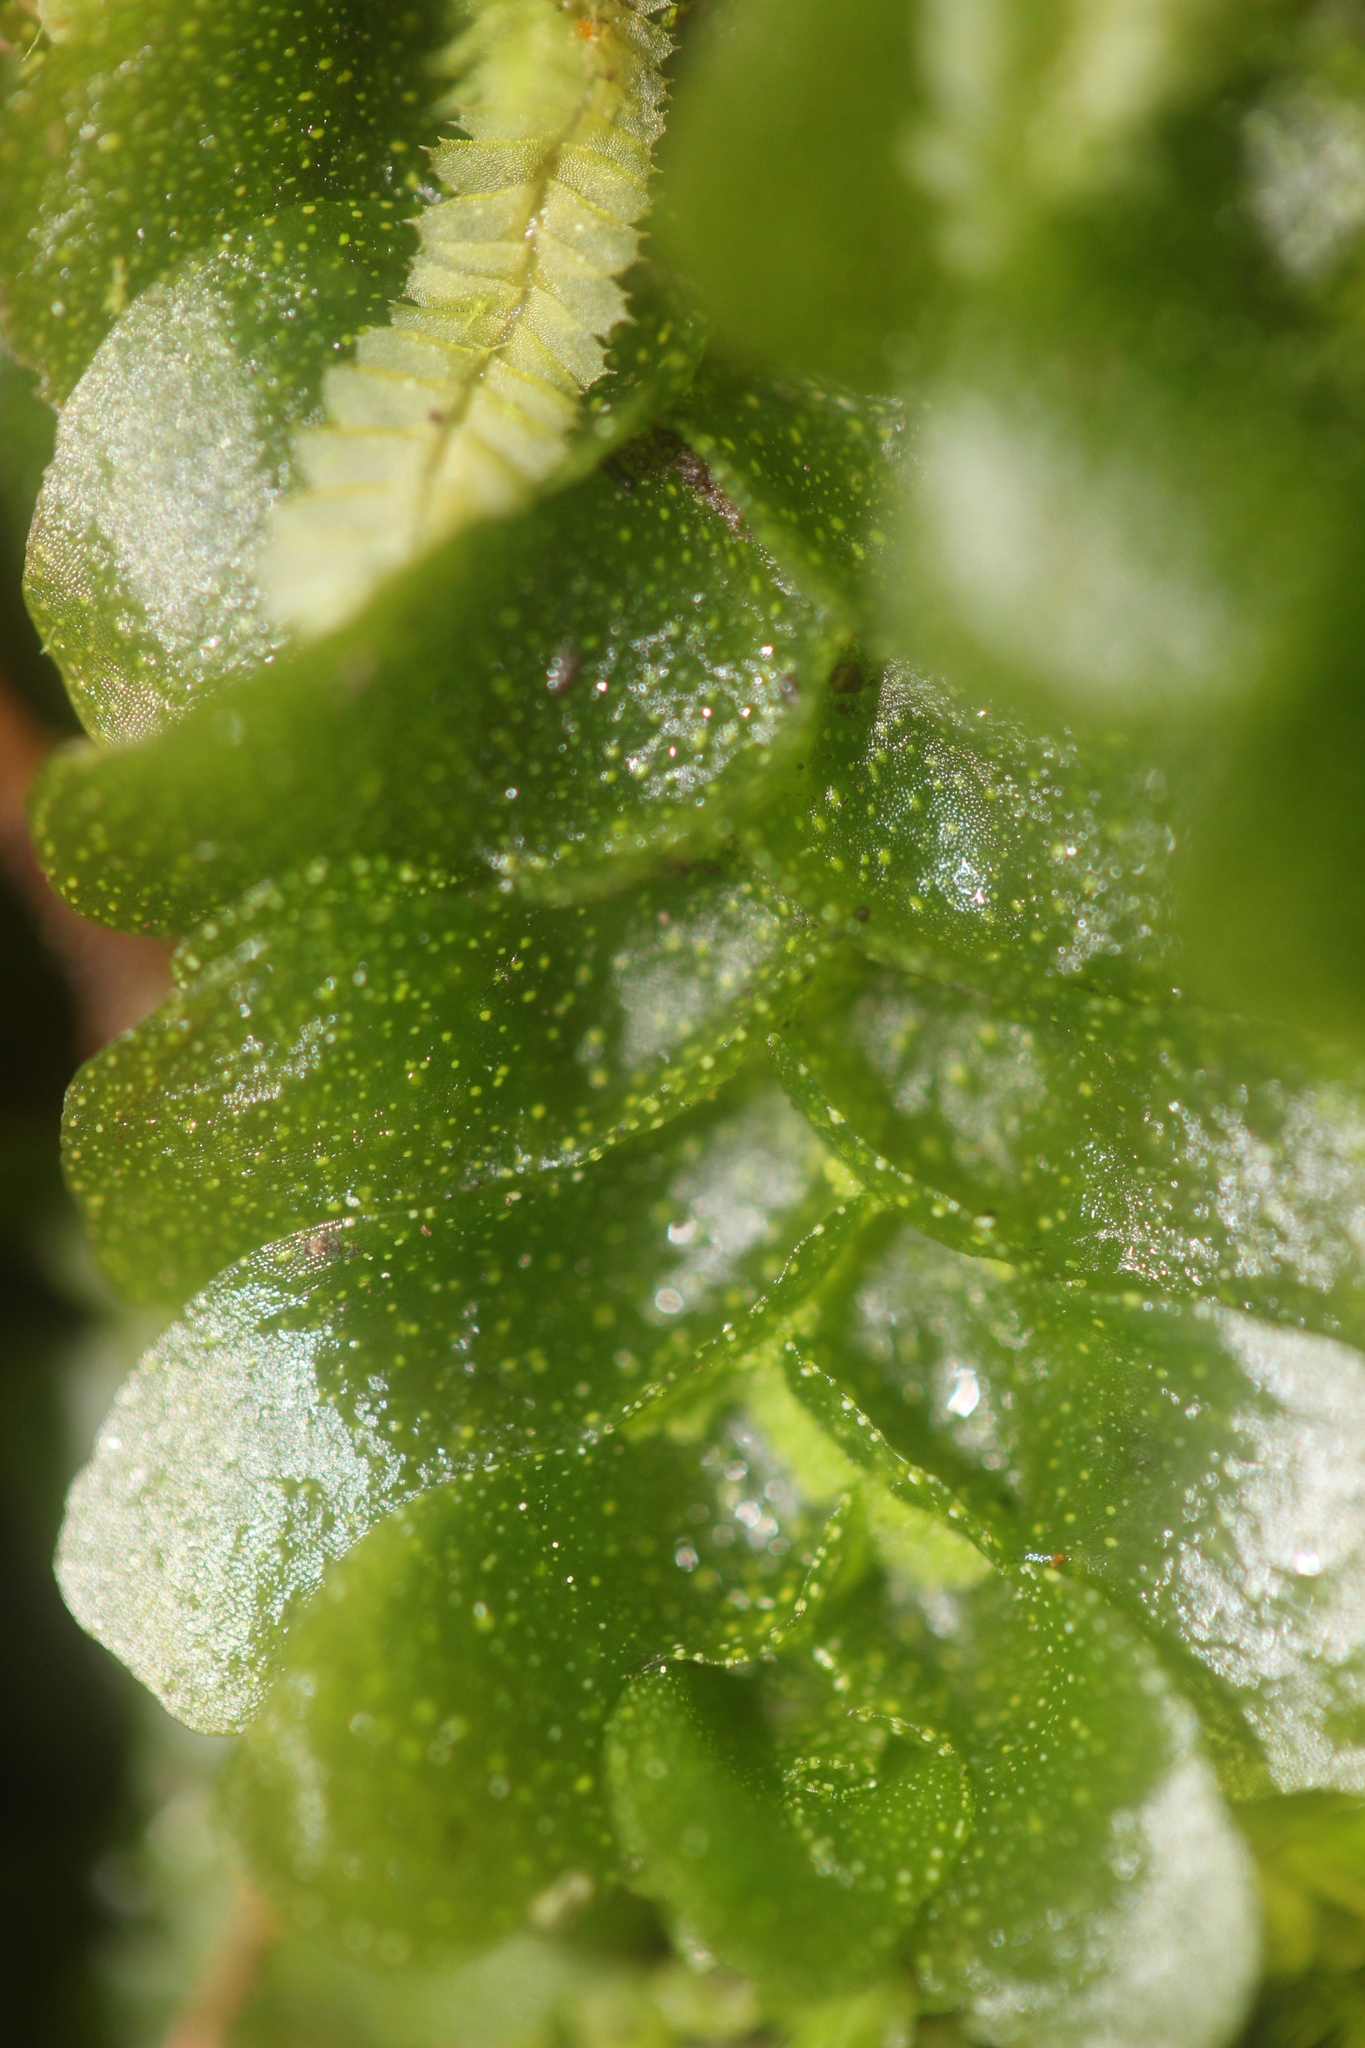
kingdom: Plantae
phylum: Marchantiophyta
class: Haplomitriopsida
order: Treubiales
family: Treubiaceae
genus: Treubia
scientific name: Treubia lacunosa
